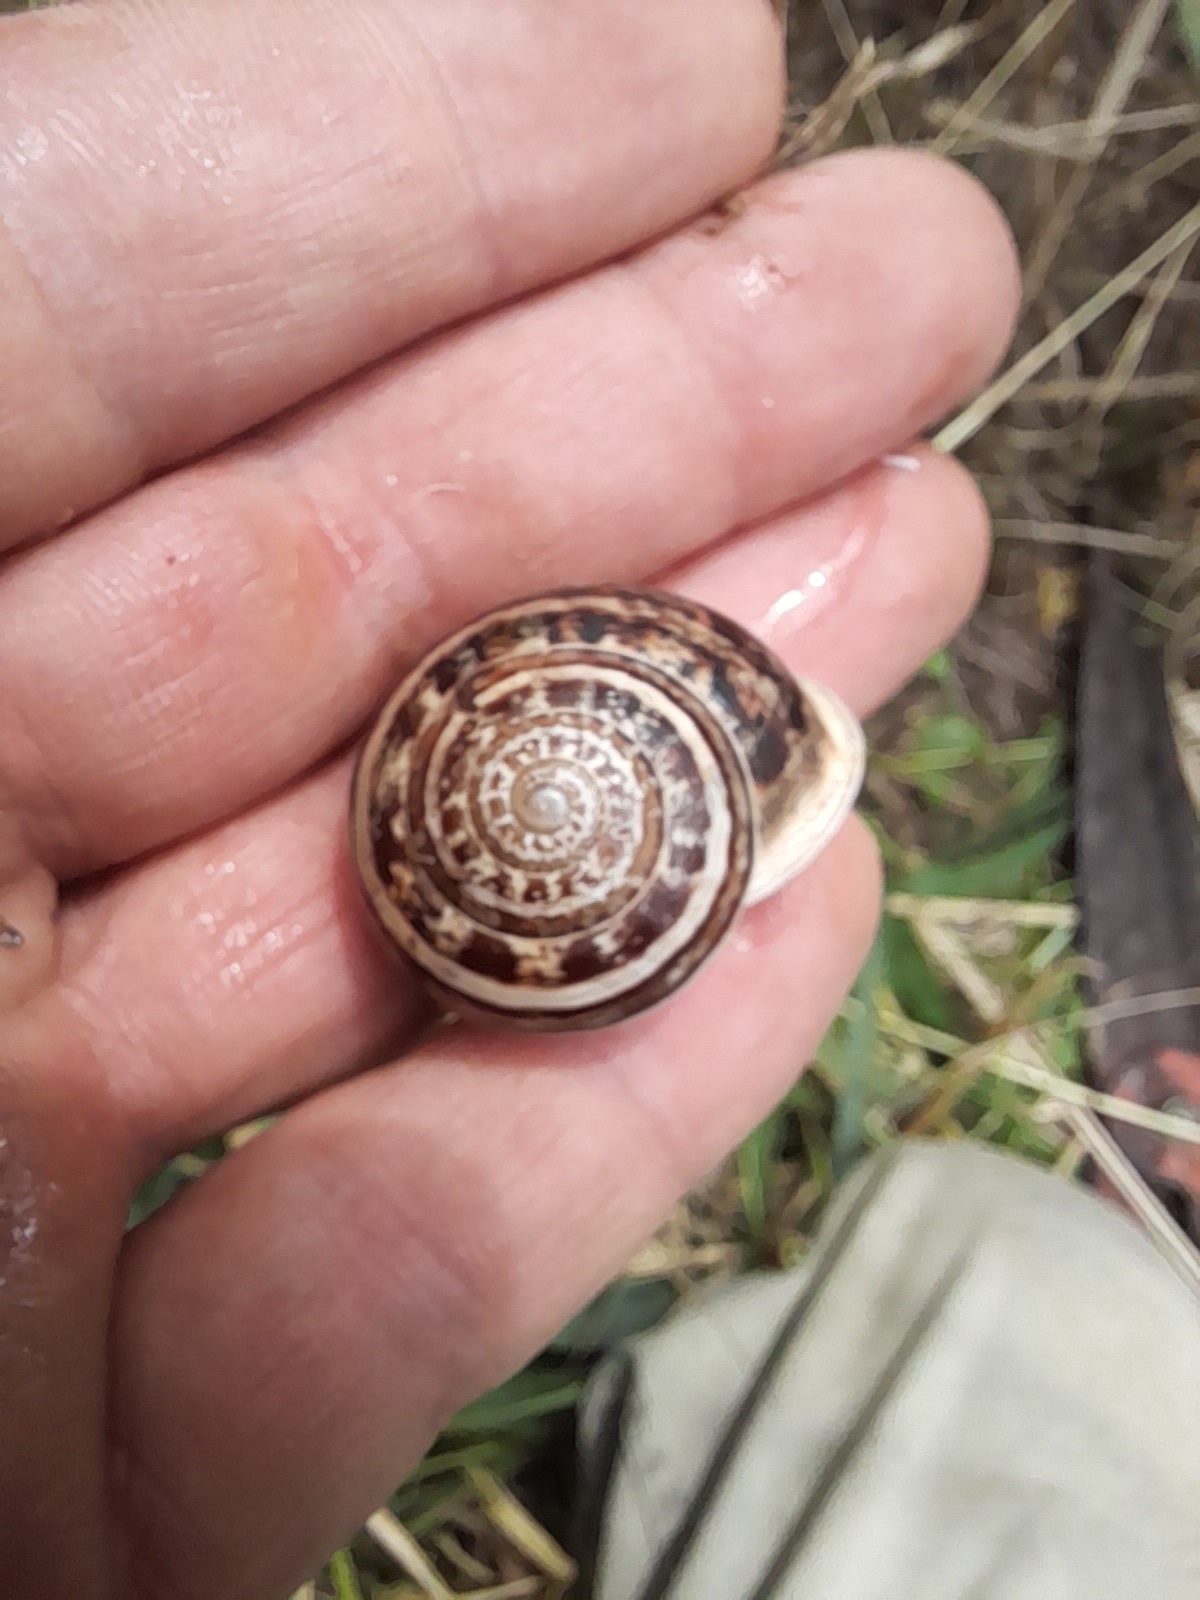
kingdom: Animalia
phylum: Mollusca
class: Gastropoda
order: Stylommatophora
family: Helicidae
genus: Eobania
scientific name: Eobania vermiculata
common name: Chocolateband snail
